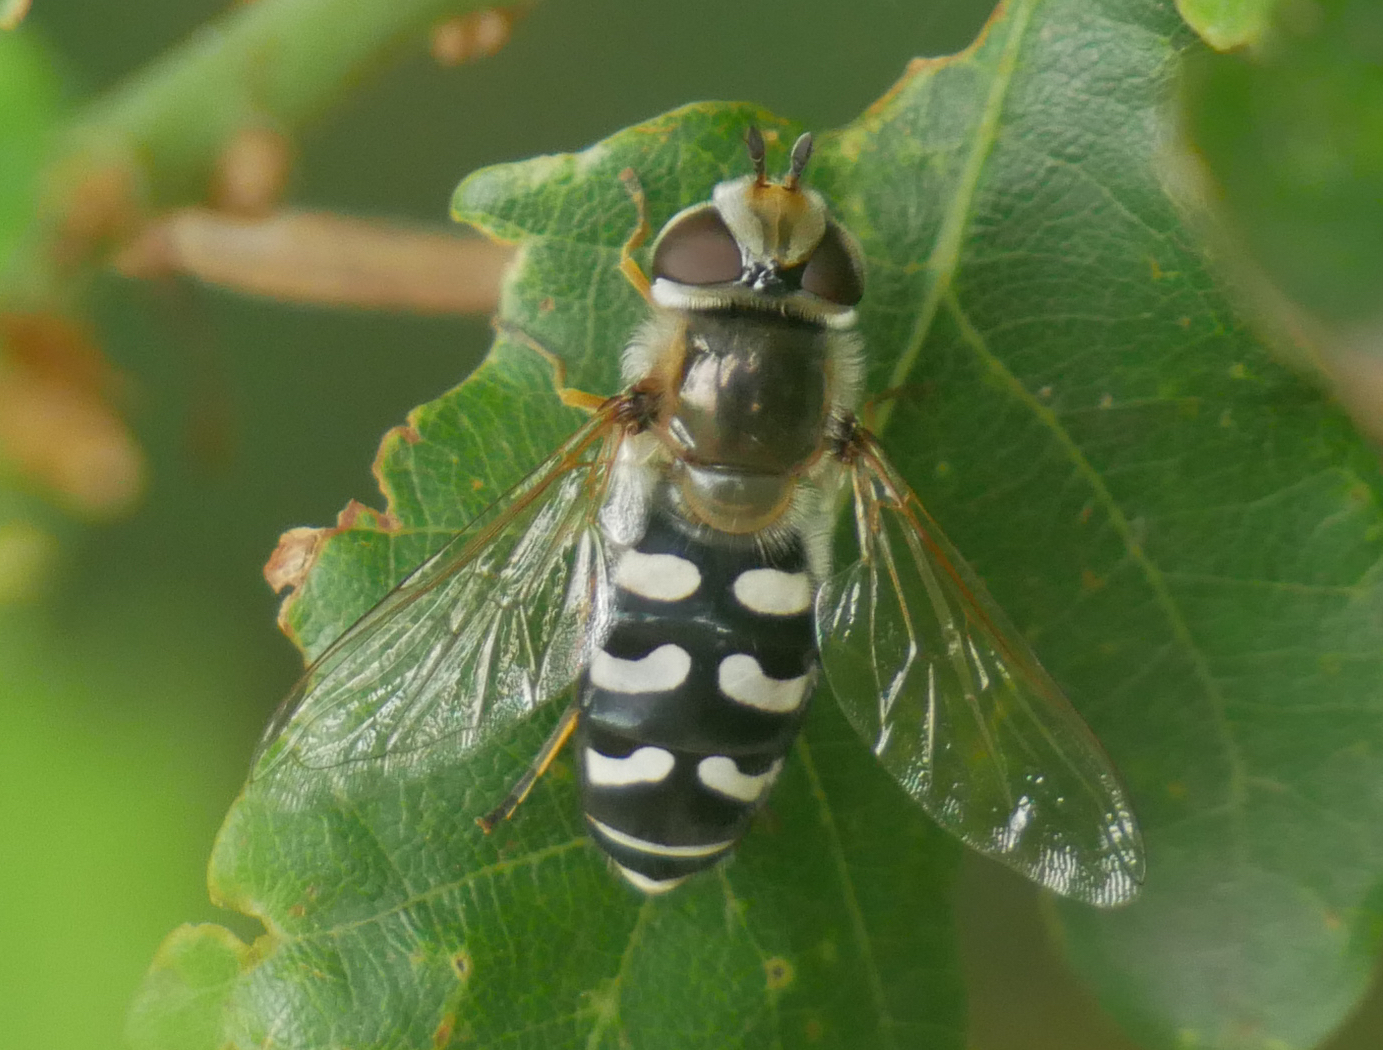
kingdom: Animalia
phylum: Arthropoda
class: Insecta
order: Diptera
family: Syrphidae
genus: Scaeva
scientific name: Scaeva pyrastri
